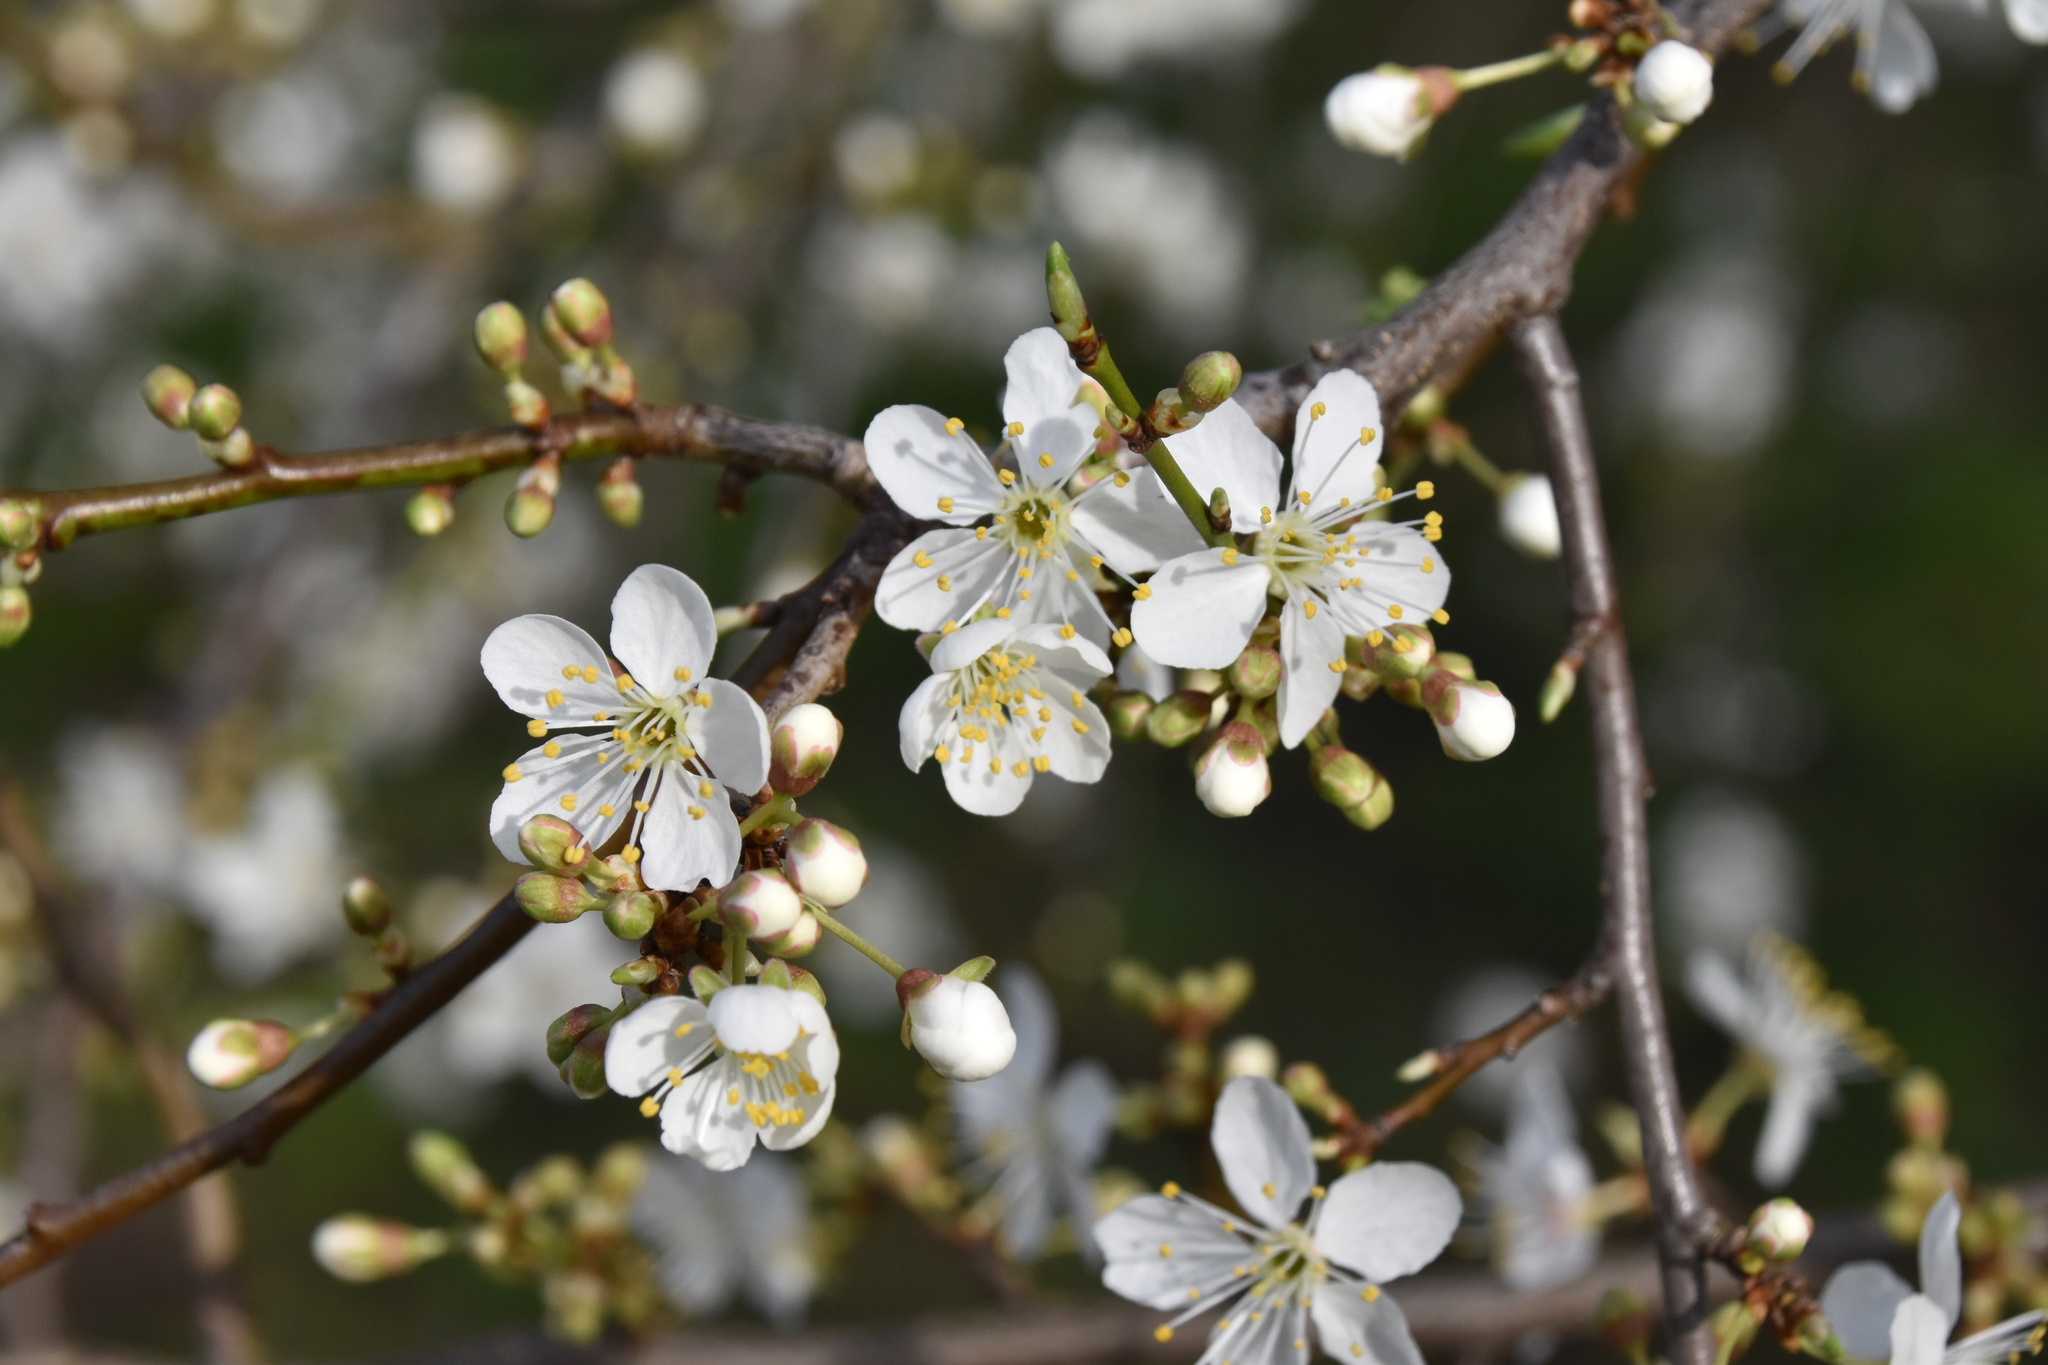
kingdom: Plantae
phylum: Tracheophyta
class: Magnoliopsida
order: Rosales
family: Rosaceae
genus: Prunus
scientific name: Prunus cerasifera
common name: Cherry plum
